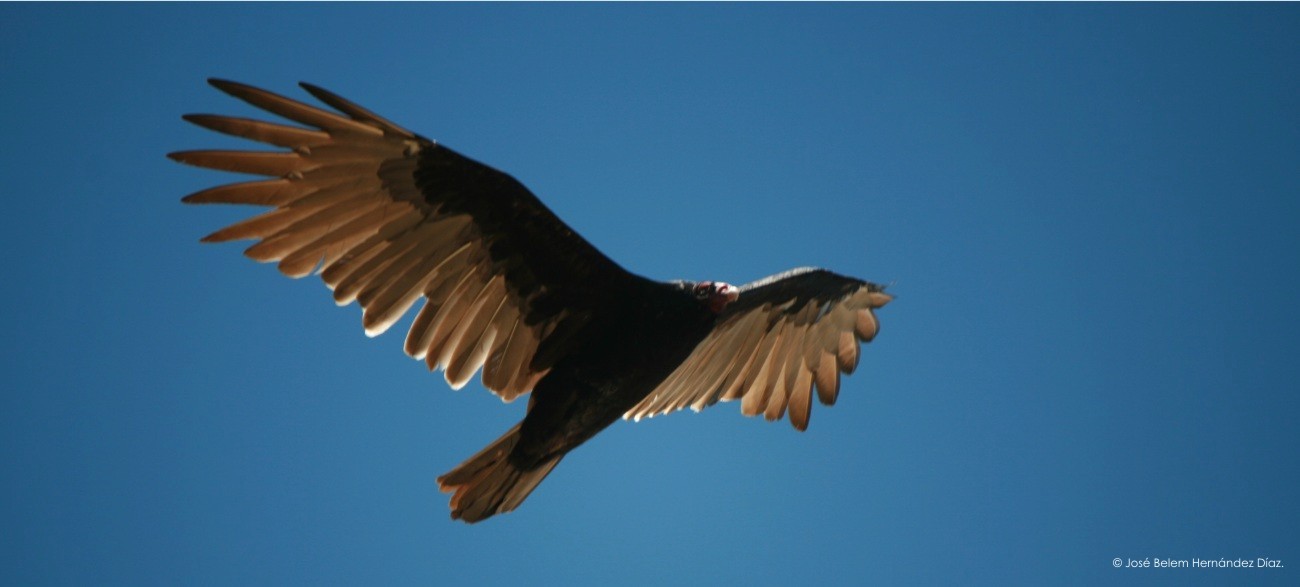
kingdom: Animalia
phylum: Chordata
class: Aves
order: Accipitriformes
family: Cathartidae
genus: Cathartes
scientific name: Cathartes aura
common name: Turkey vulture
